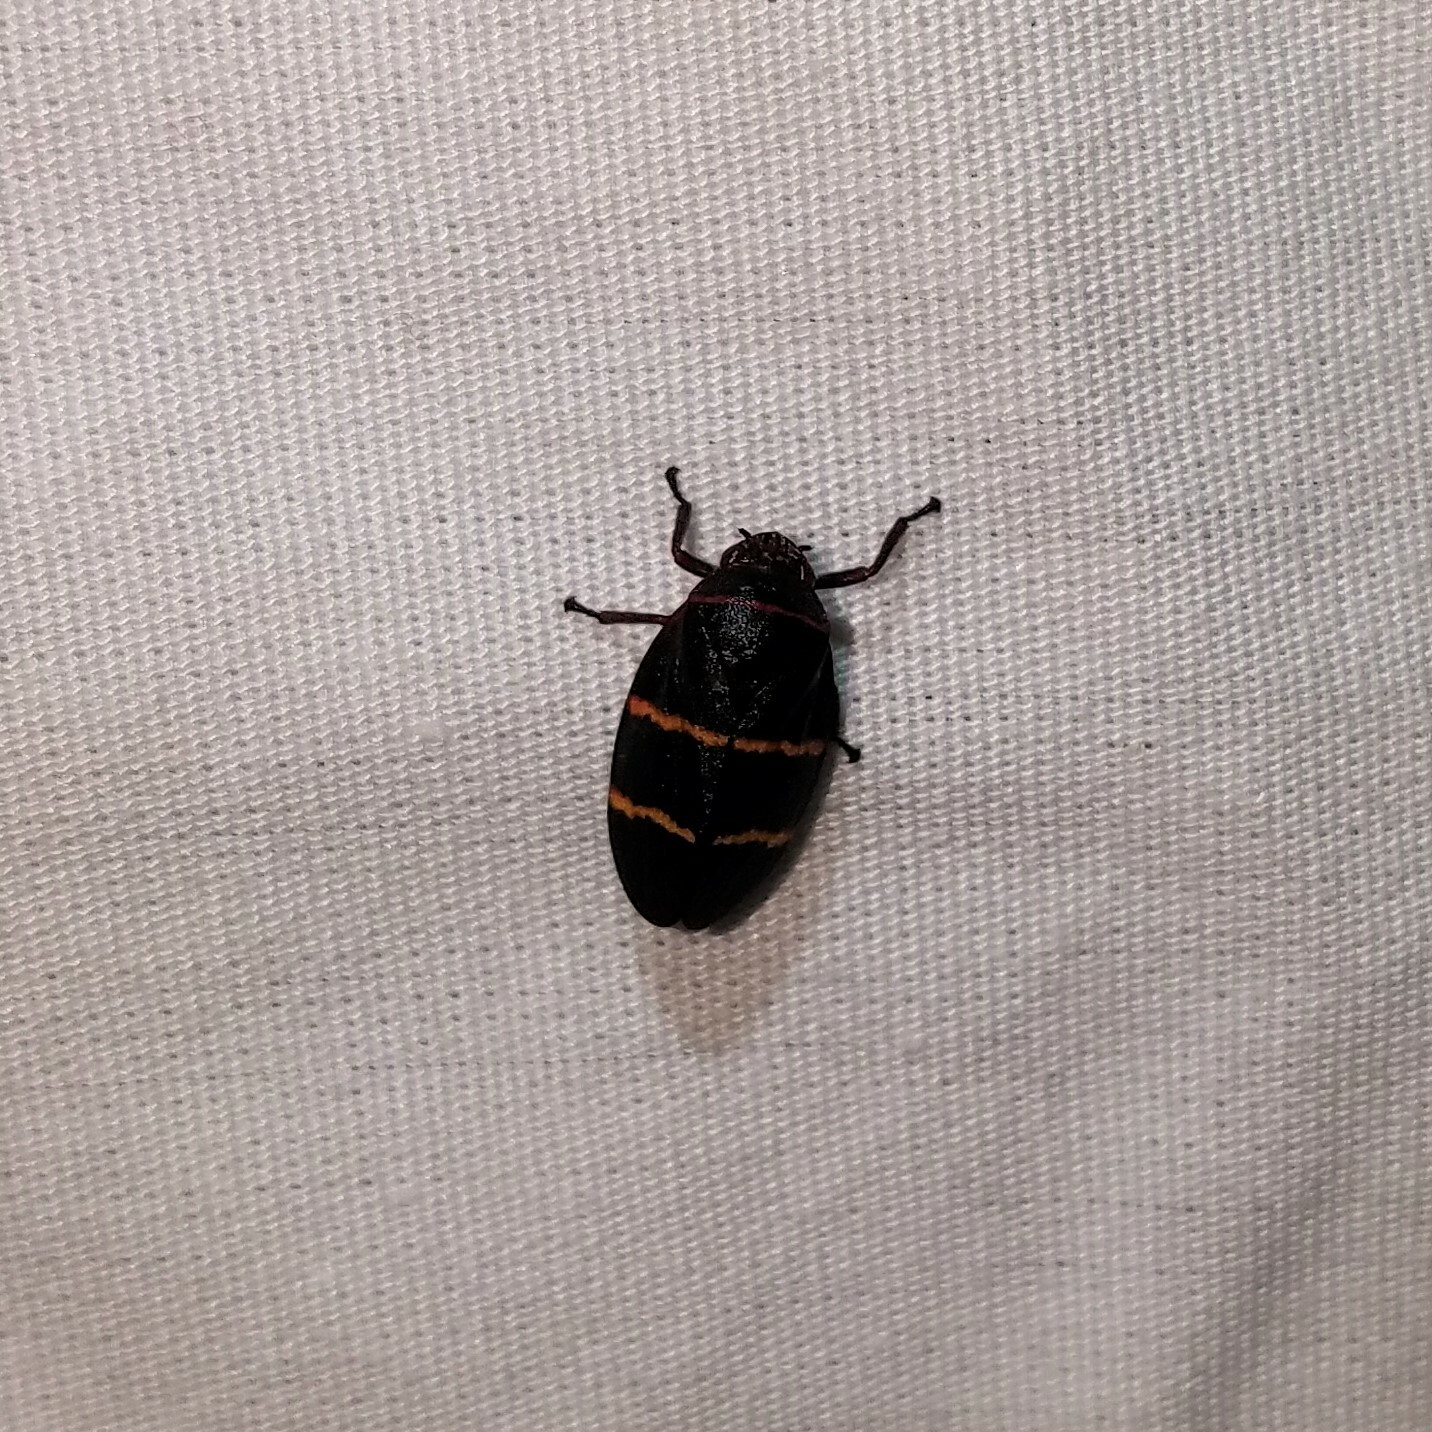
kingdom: Animalia
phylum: Arthropoda
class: Insecta
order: Hemiptera
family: Cercopidae
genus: Prosapia
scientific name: Prosapia bicincta
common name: Twolined spittlebug
